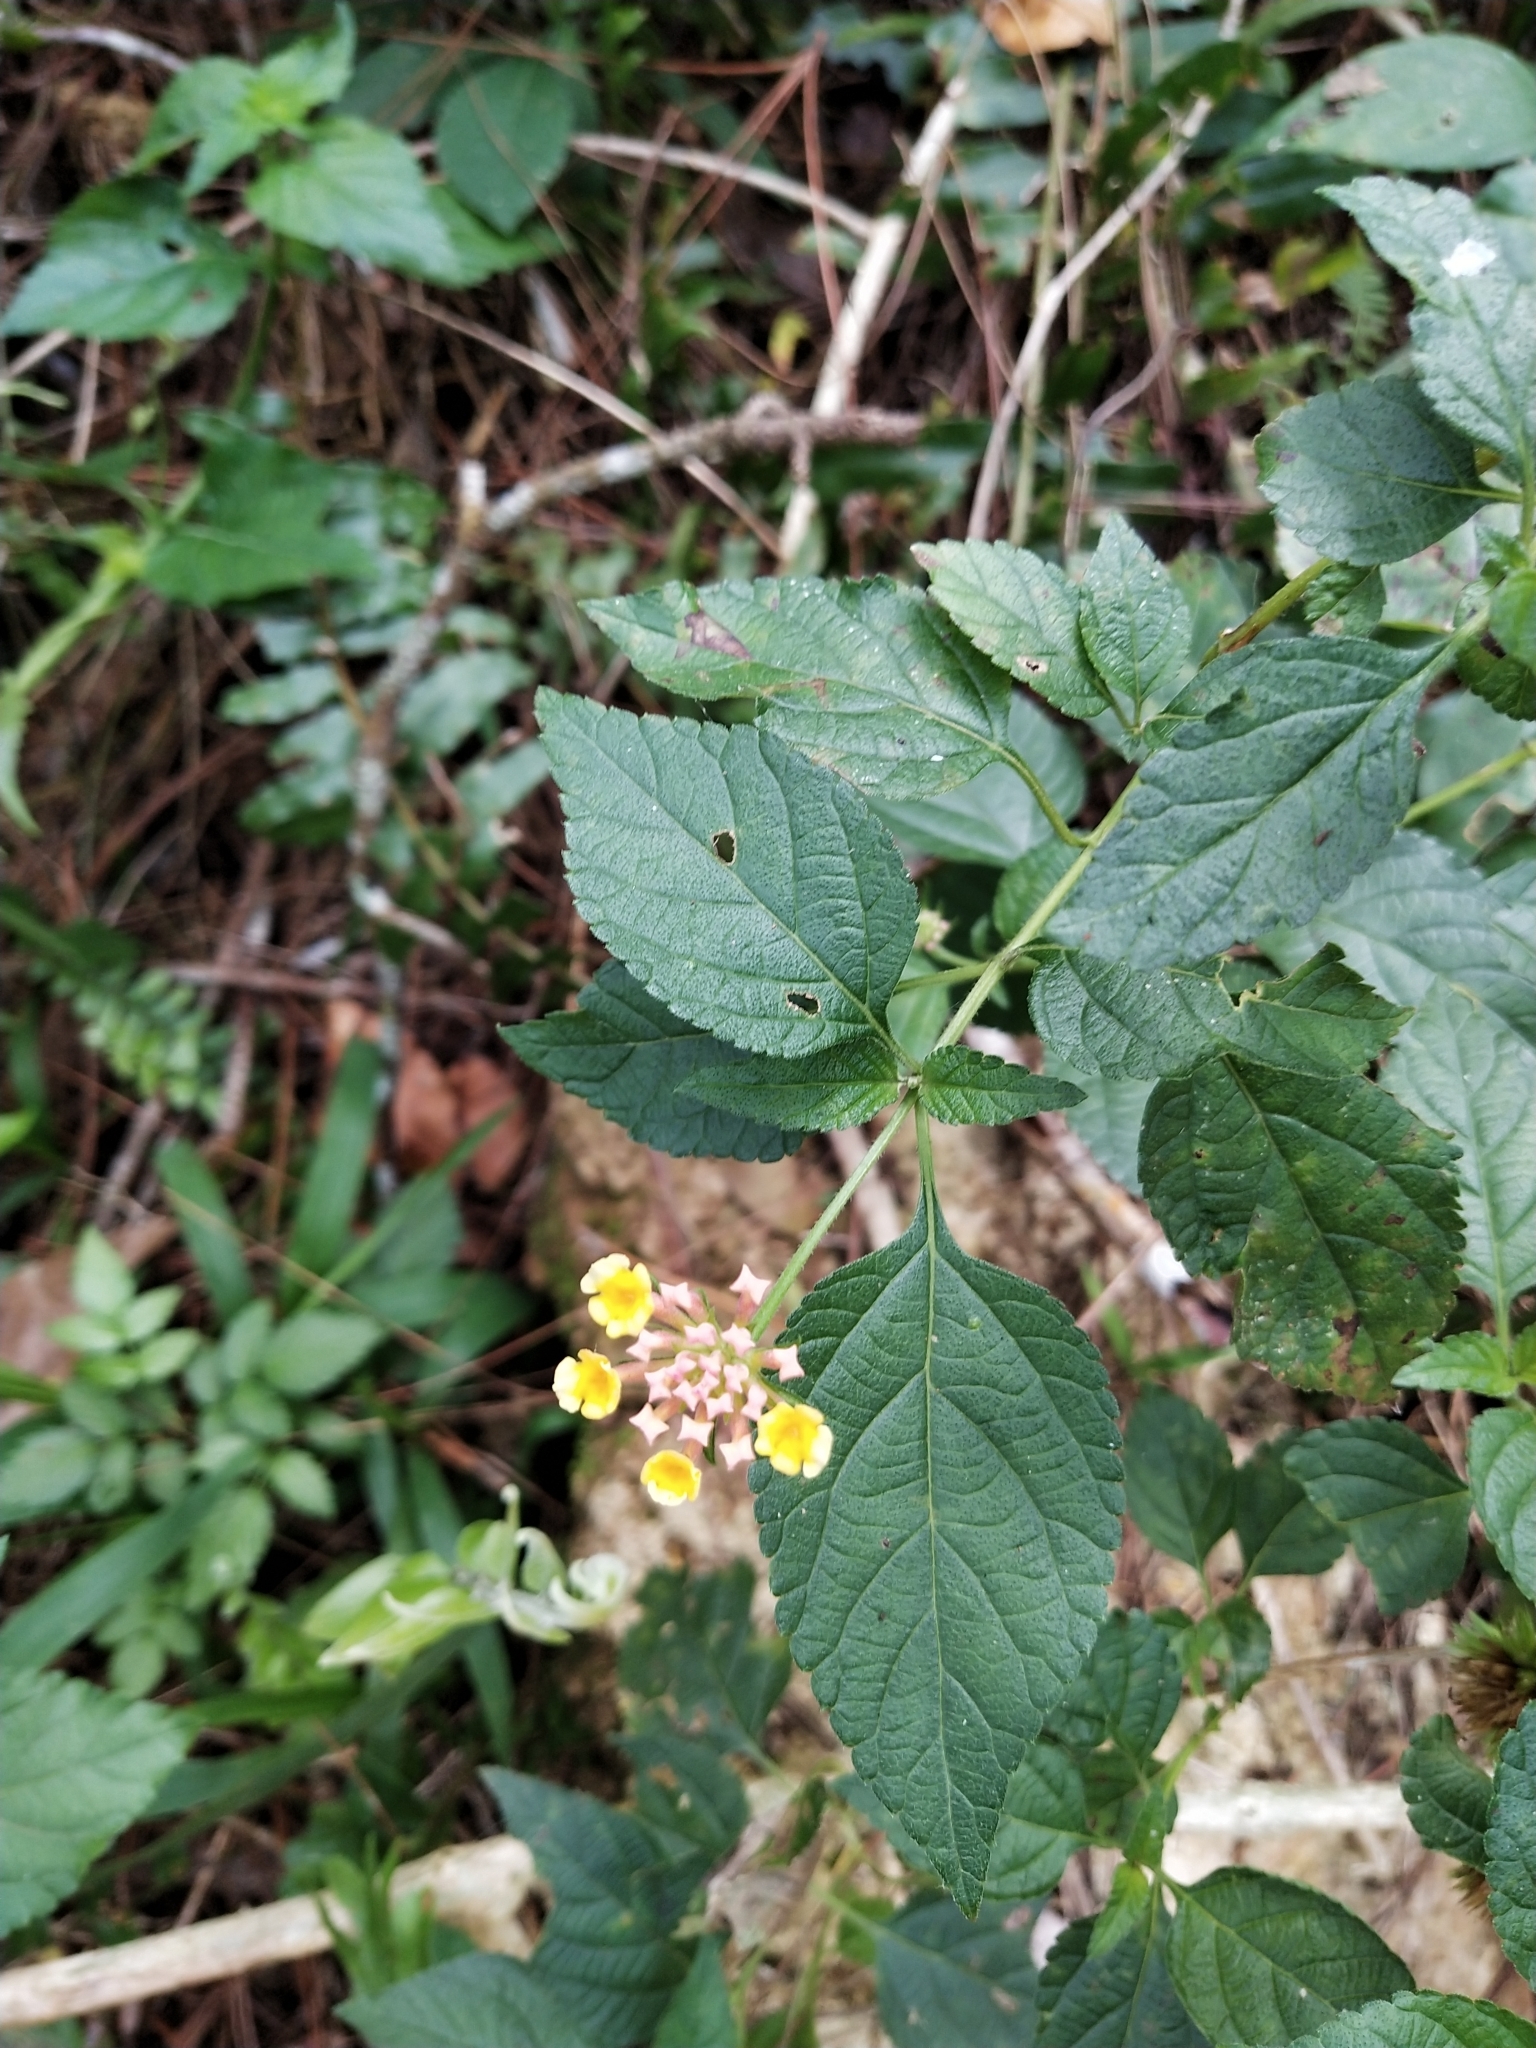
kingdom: Plantae
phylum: Tracheophyta
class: Magnoliopsida
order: Lamiales
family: Verbenaceae
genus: Lantana
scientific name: Lantana camara
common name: Lantana
